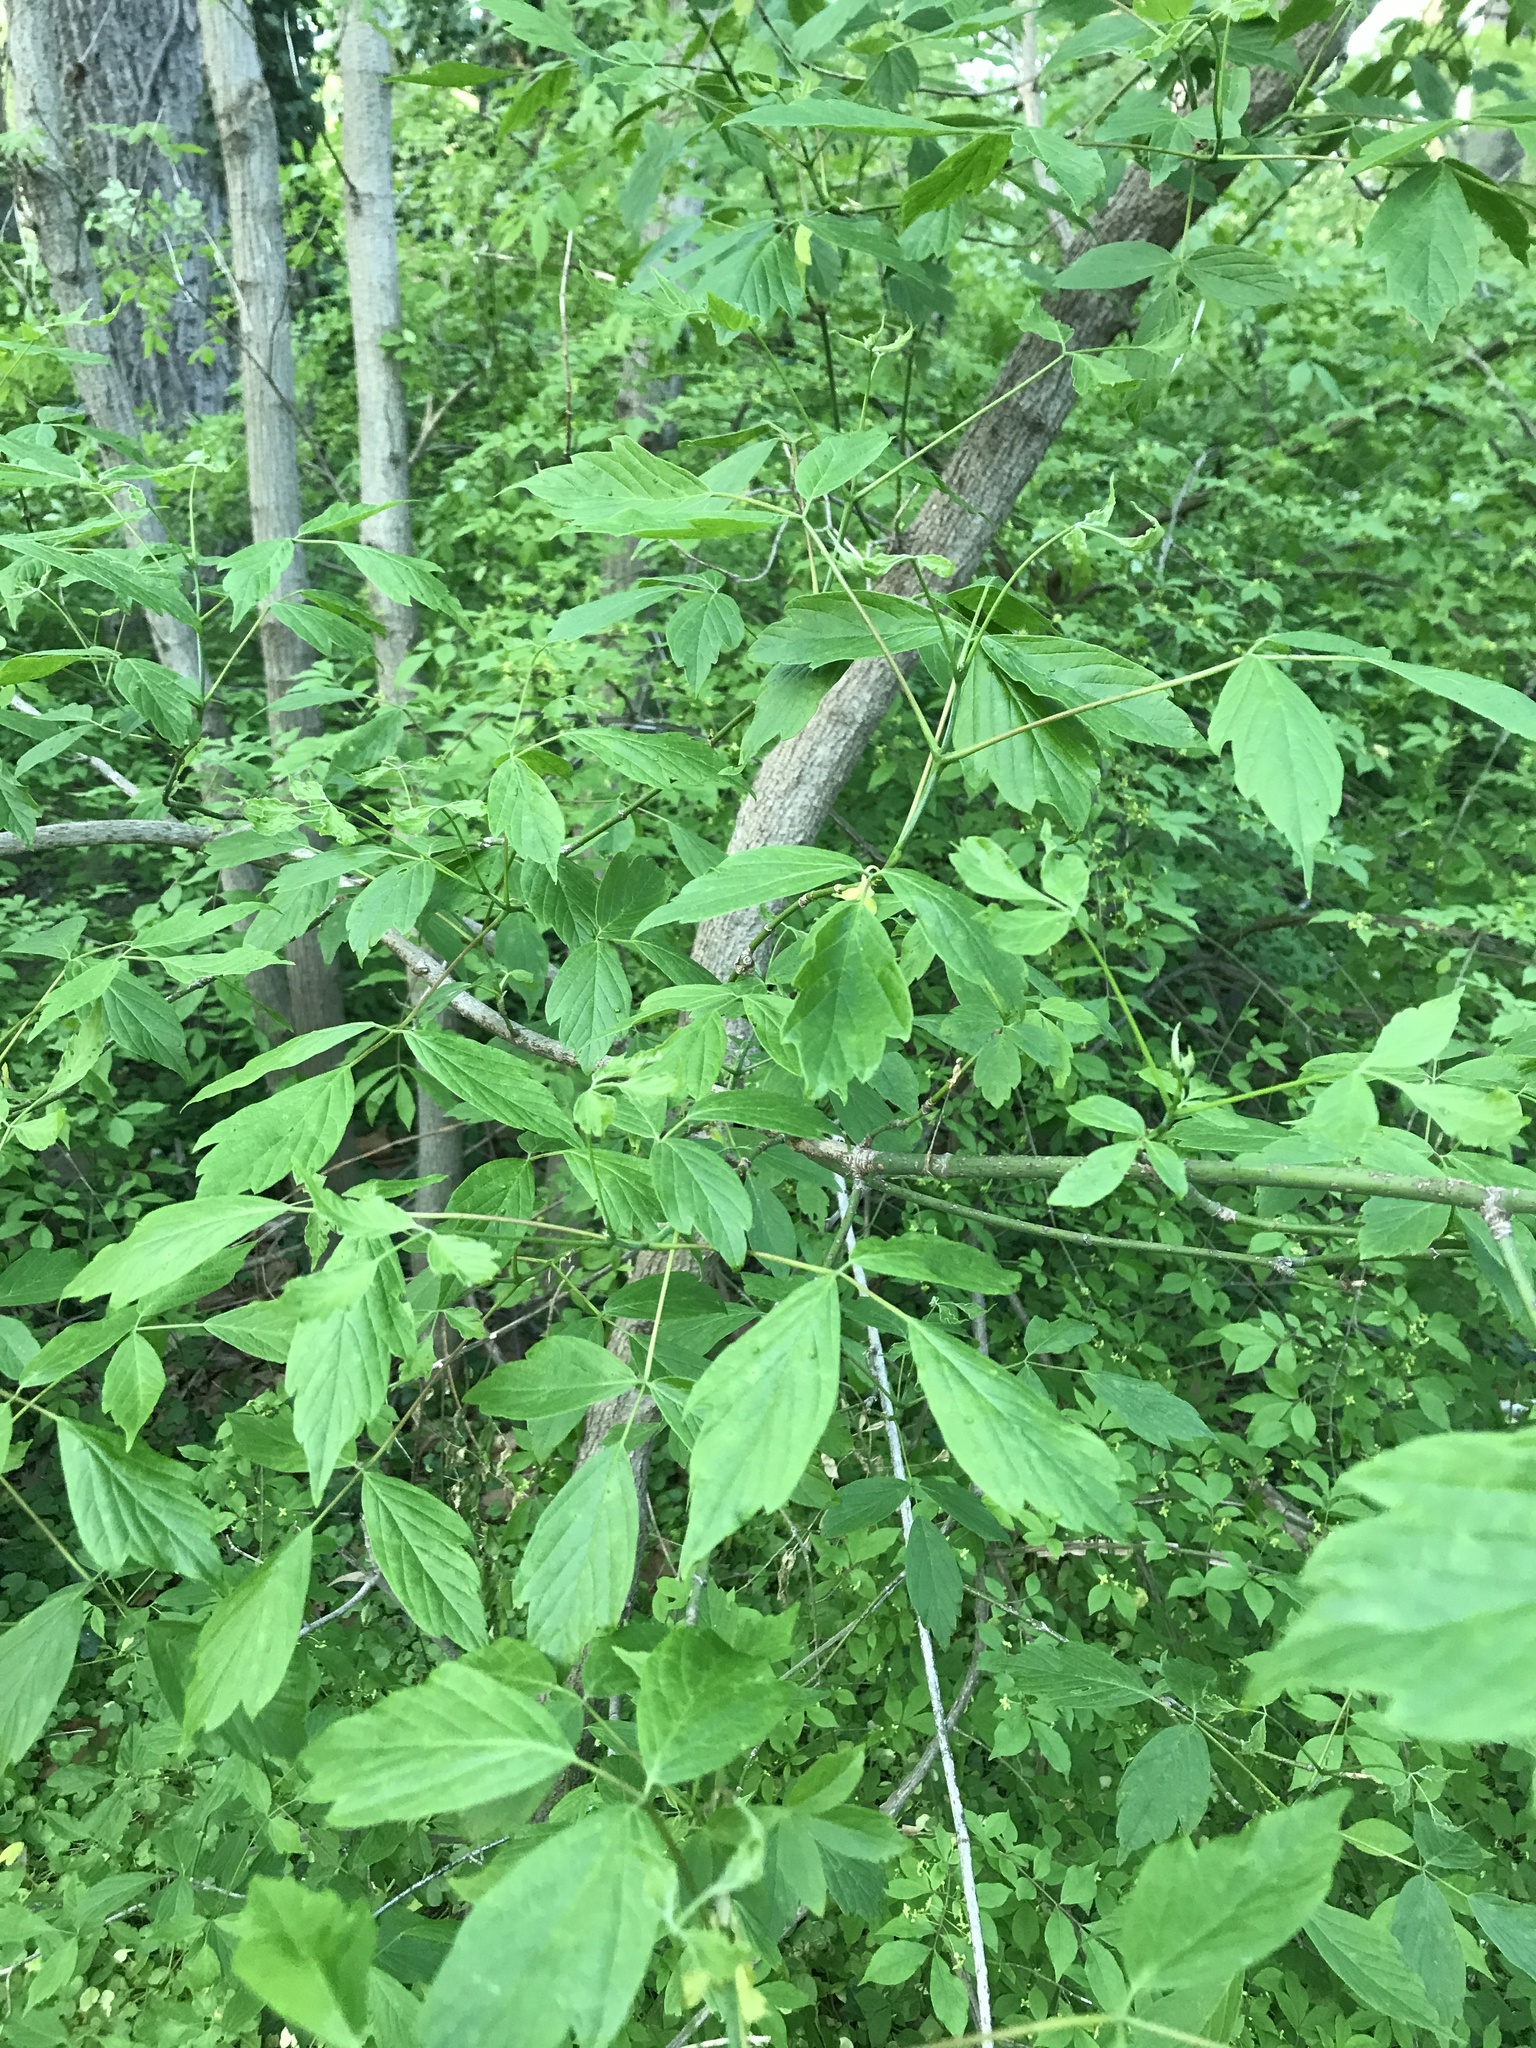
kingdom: Plantae
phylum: Tracheophyta
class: Magnoliopsida
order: Sapindales
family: Sapindaceae
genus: Acer
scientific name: Acer negundo
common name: Ashleaf maple
